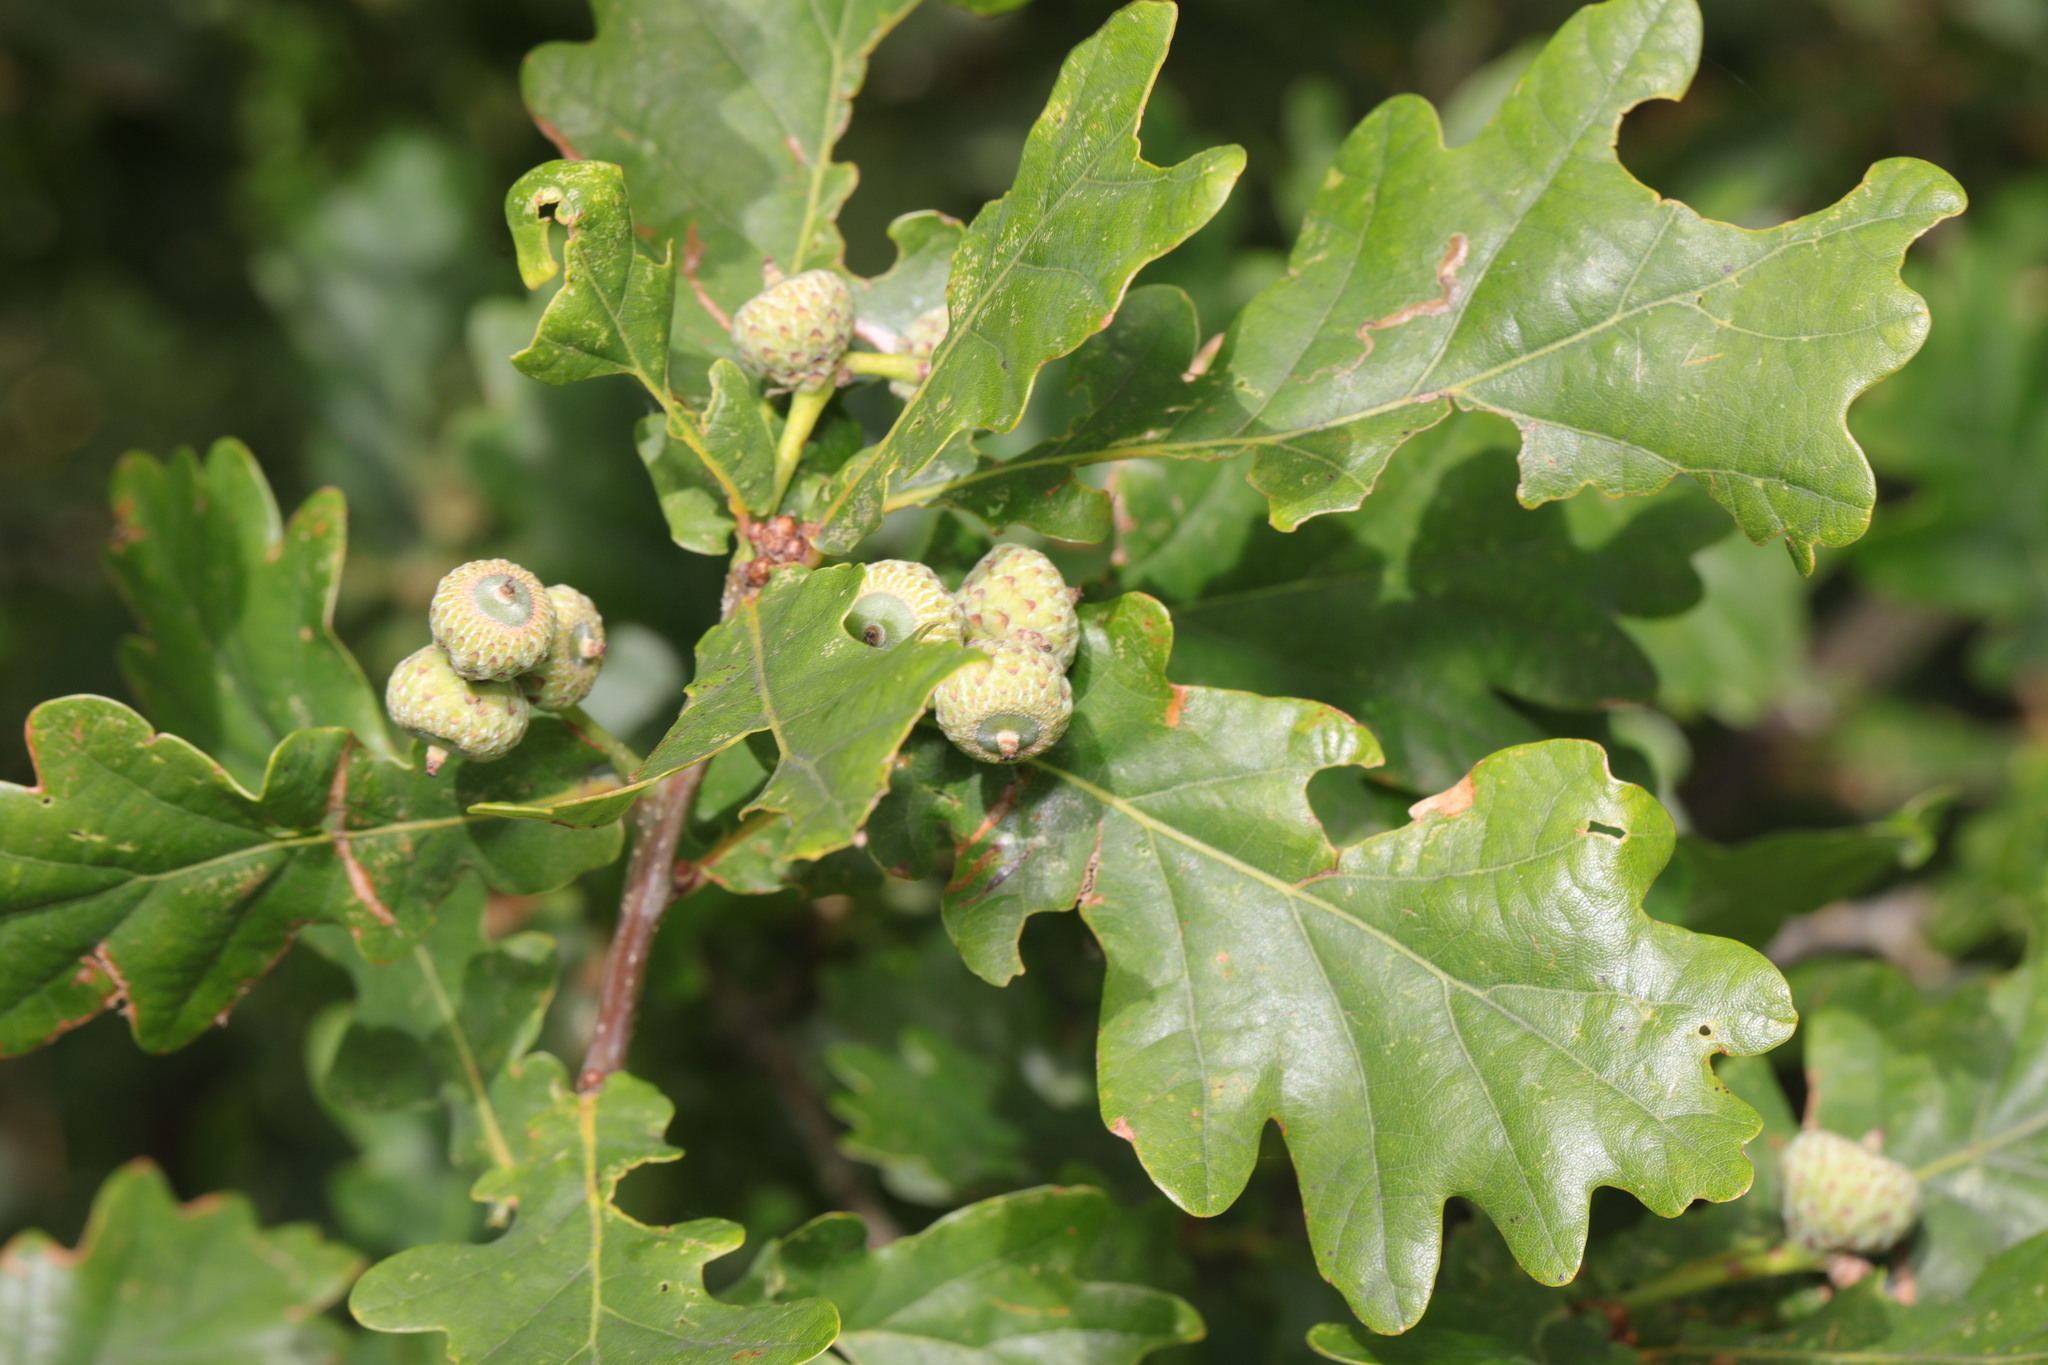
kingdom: Plantae
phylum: Tracheophyta
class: Magnoliopsida
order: Fagales
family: Fagaceae
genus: Quercus
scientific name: Quercus robur
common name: Pedunculate oak
